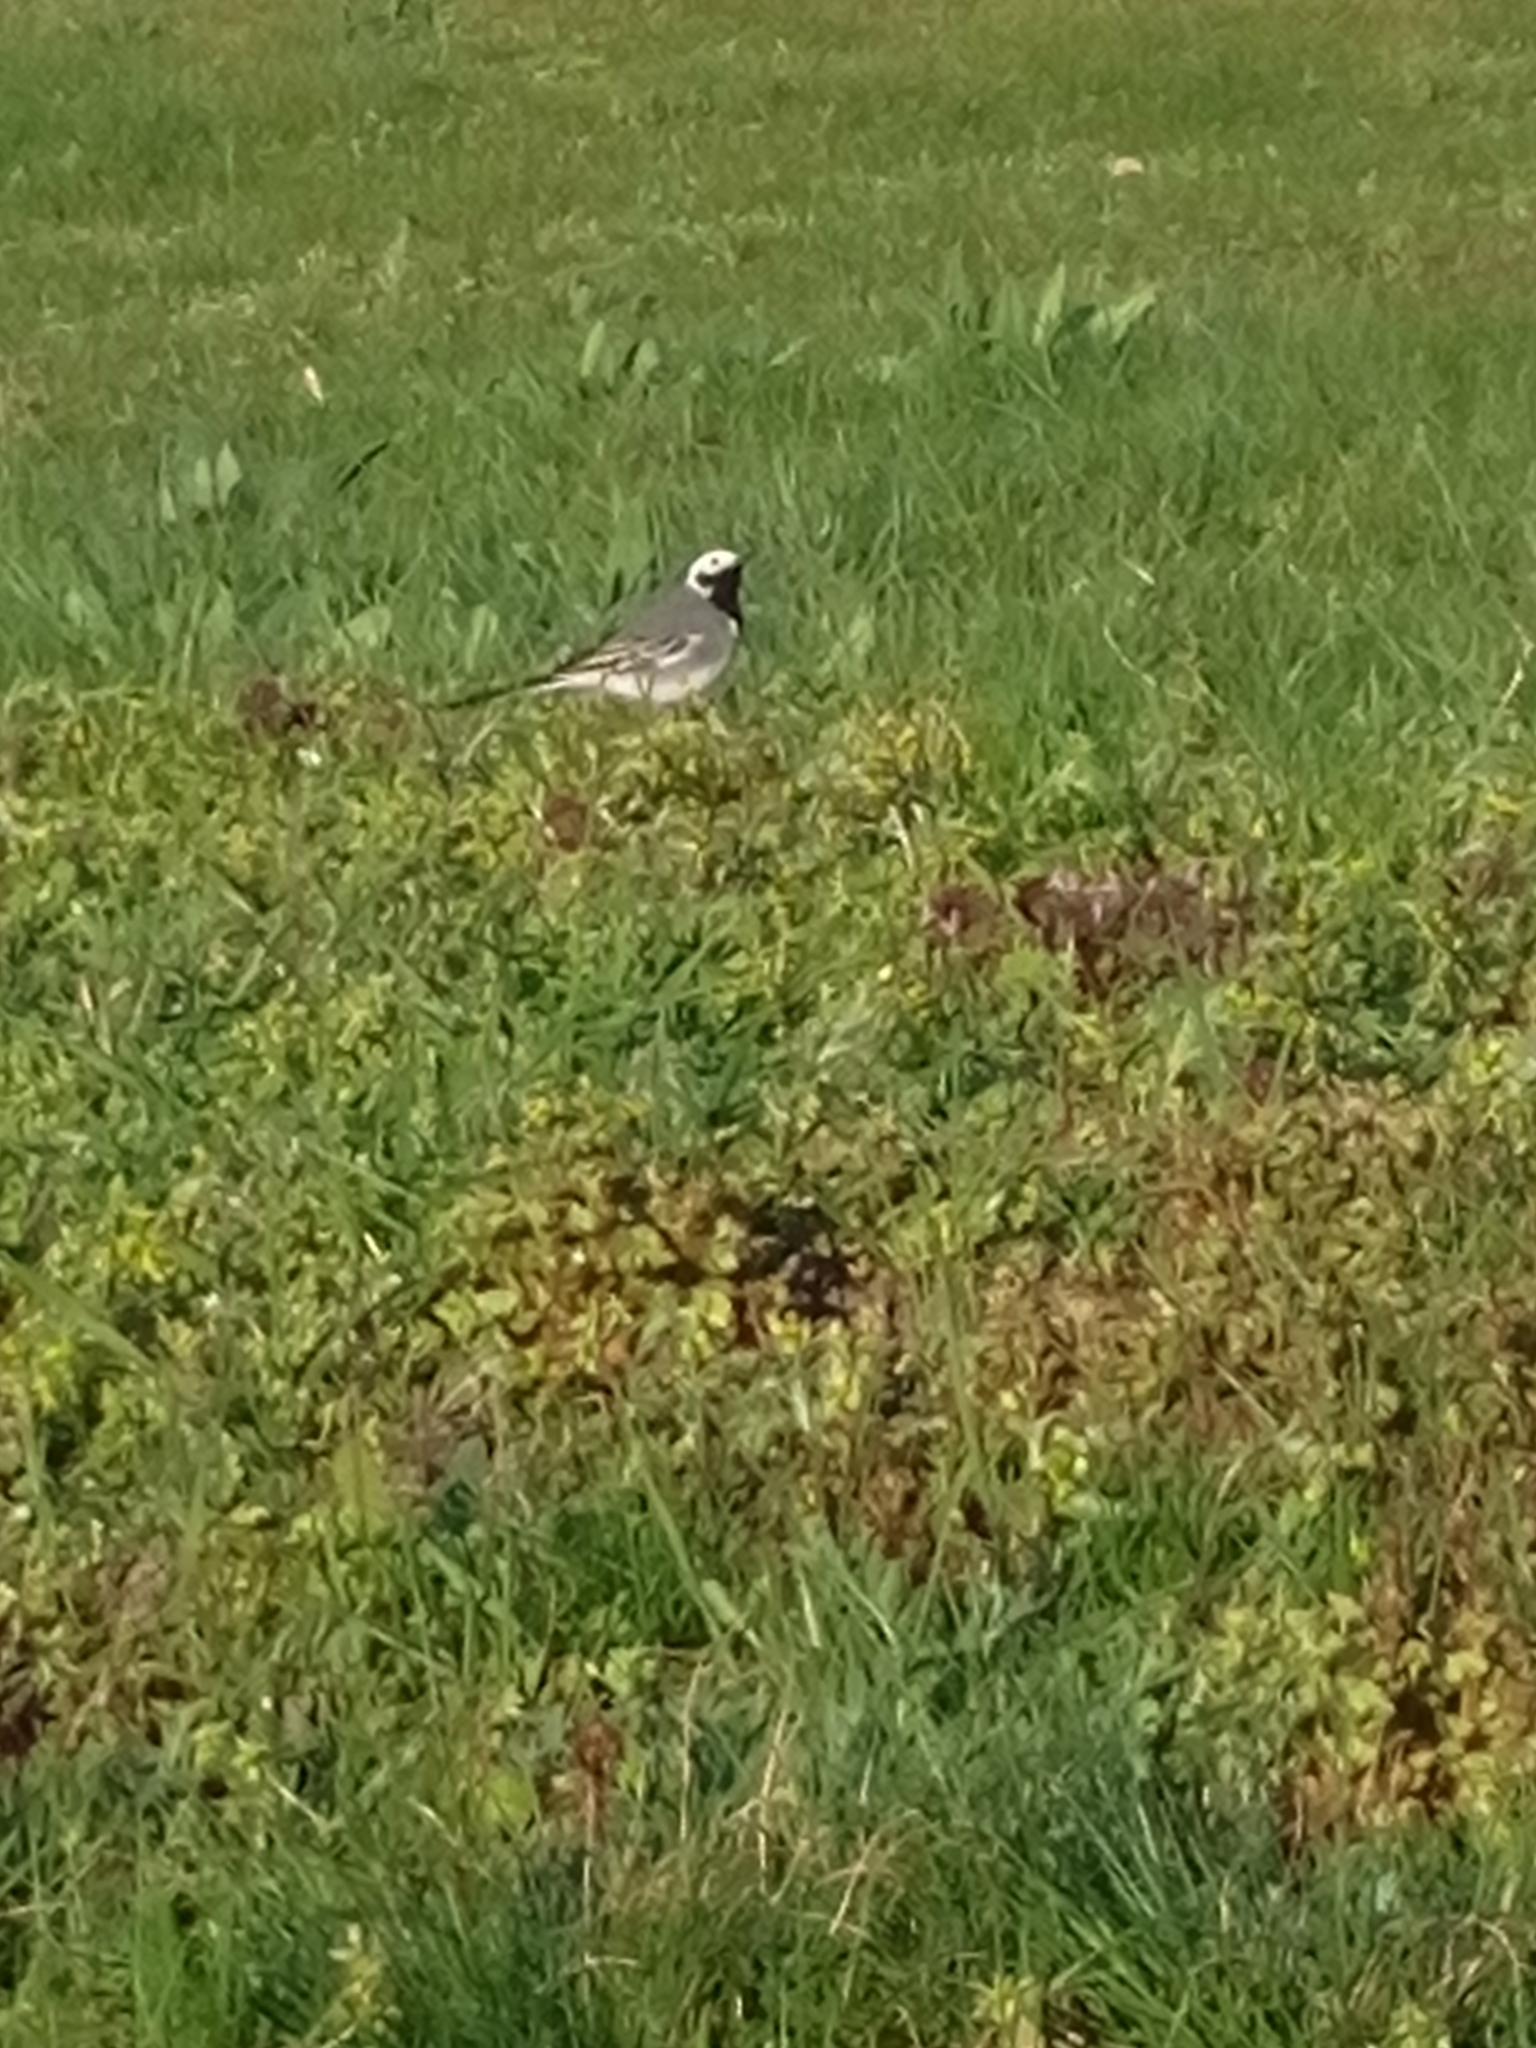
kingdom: Animalia
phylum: Chordata
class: Aves
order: Passeriformes
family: Motacillidae
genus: Motacilla
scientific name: Motacilla alba
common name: White wagtail
